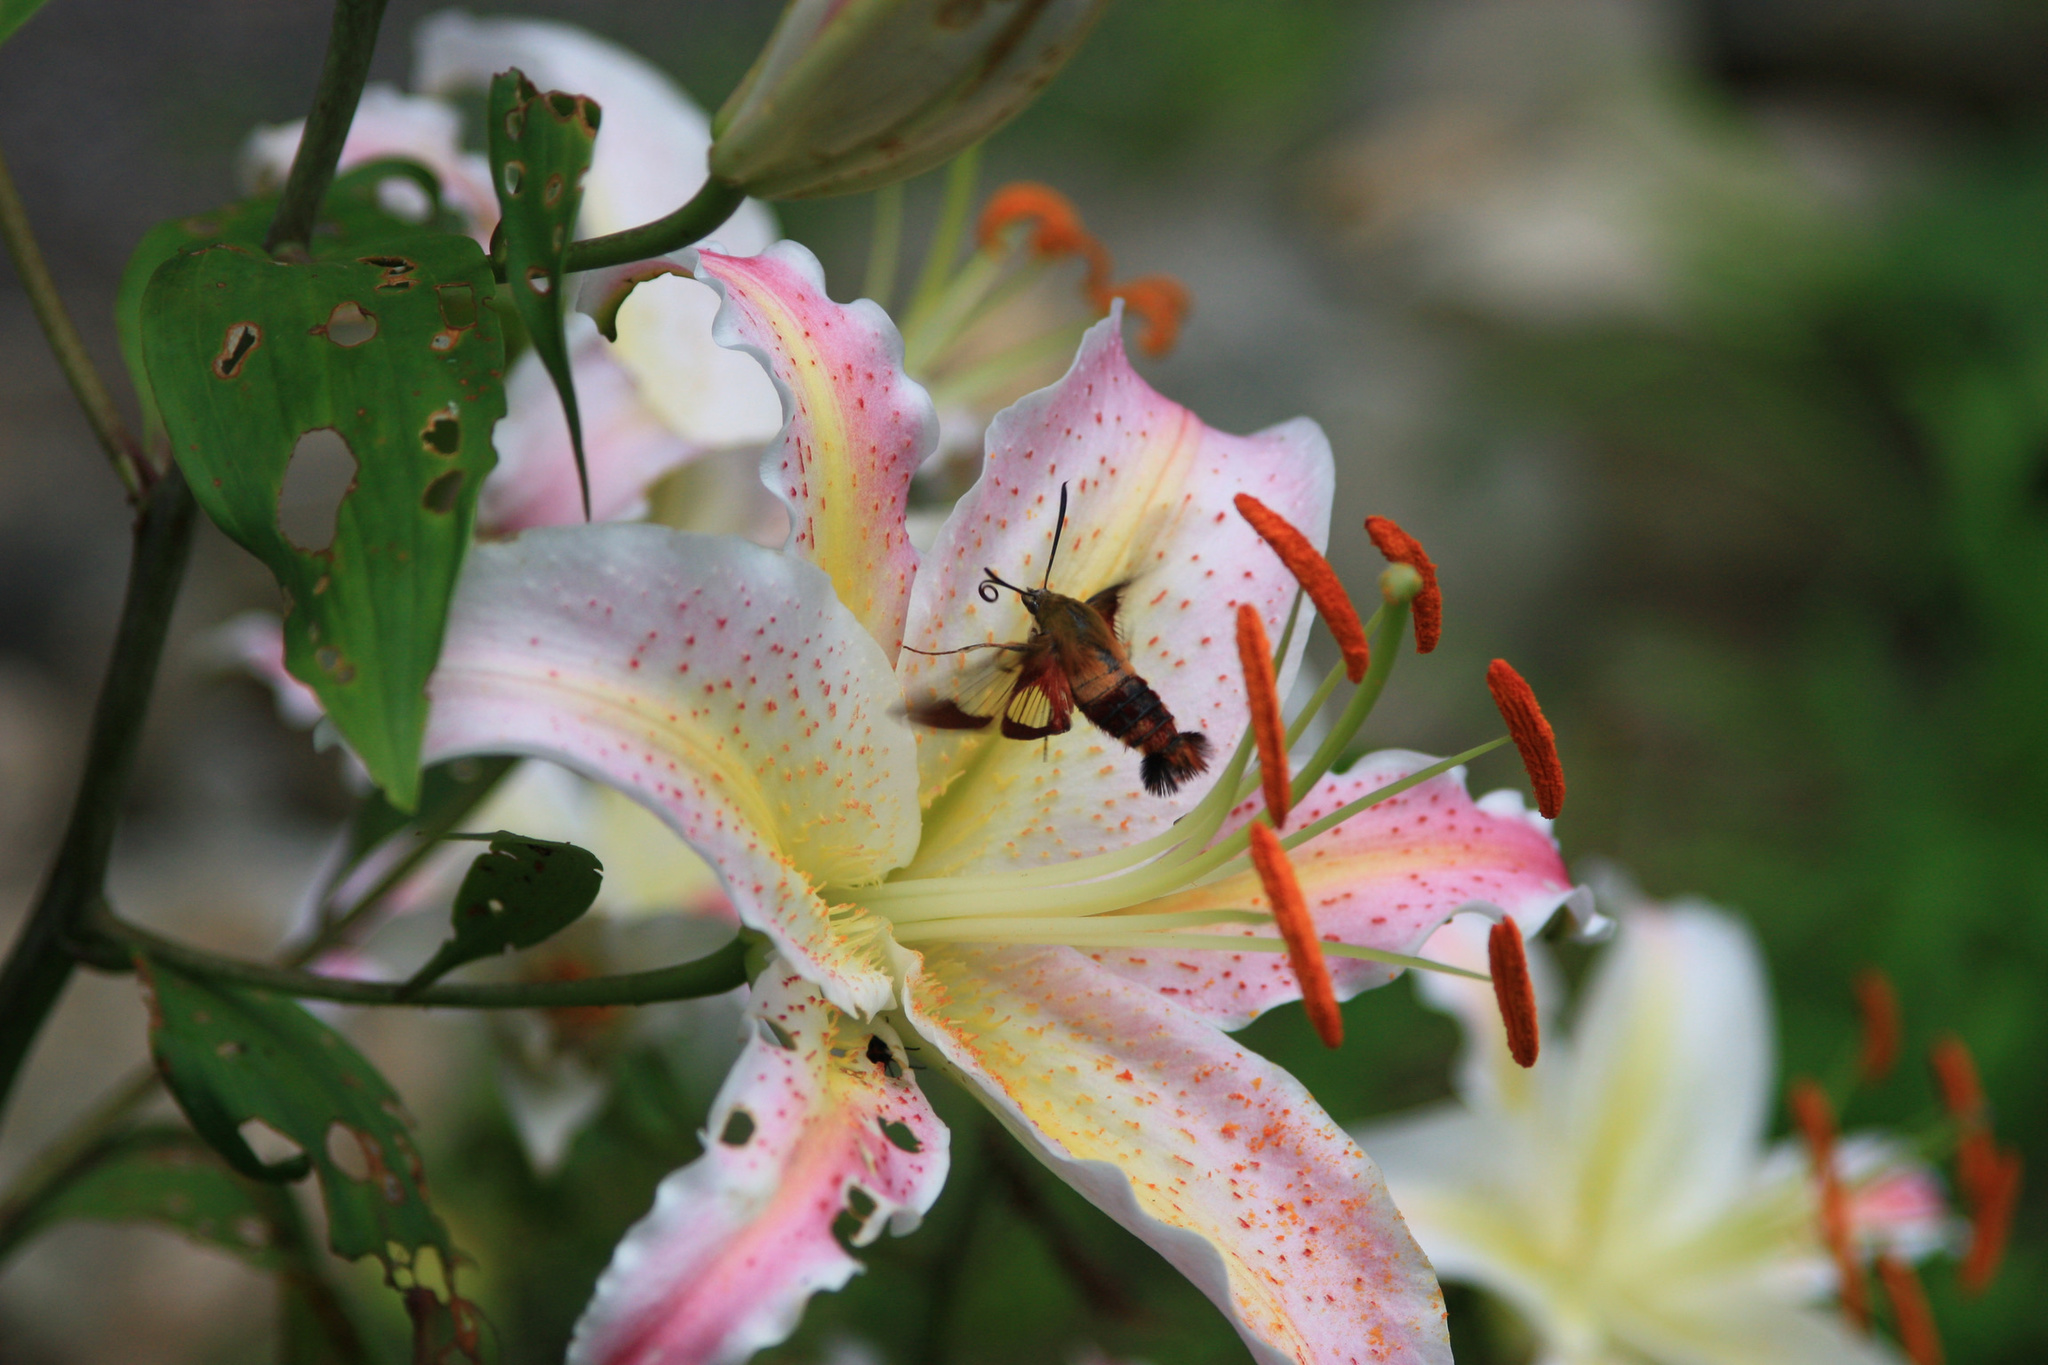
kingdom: Animalia
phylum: Arthropoda
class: Insecta
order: Lepidoptera
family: Sphingidae
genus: Hemaris
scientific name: Hemaris thysbe
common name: Common clear-wing
